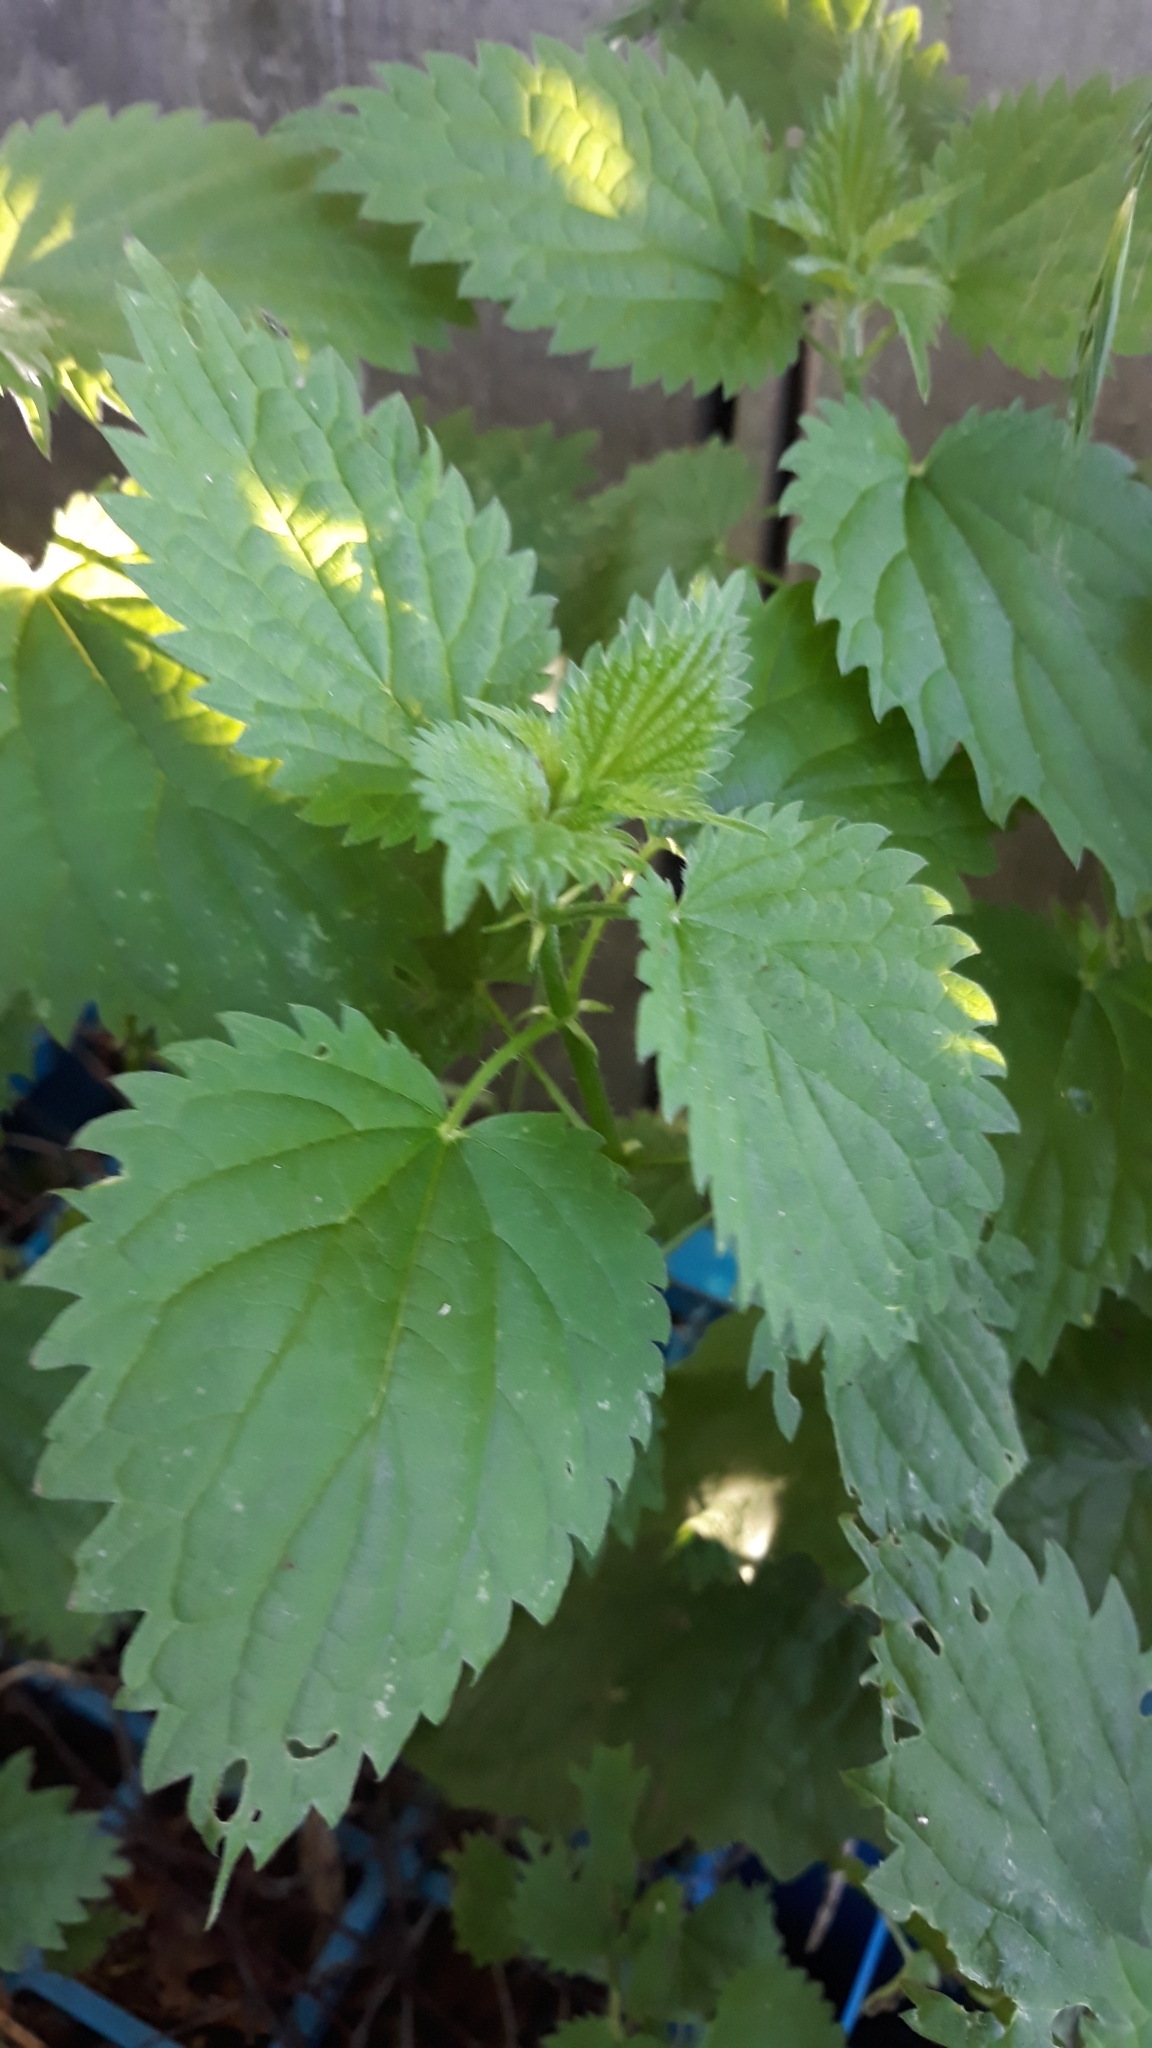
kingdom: Plantae
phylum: Tracheophyta
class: Magnoliopsida
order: Rosales
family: Urticaceae
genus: Urtica
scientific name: Urtica dioica
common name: Common nettle
